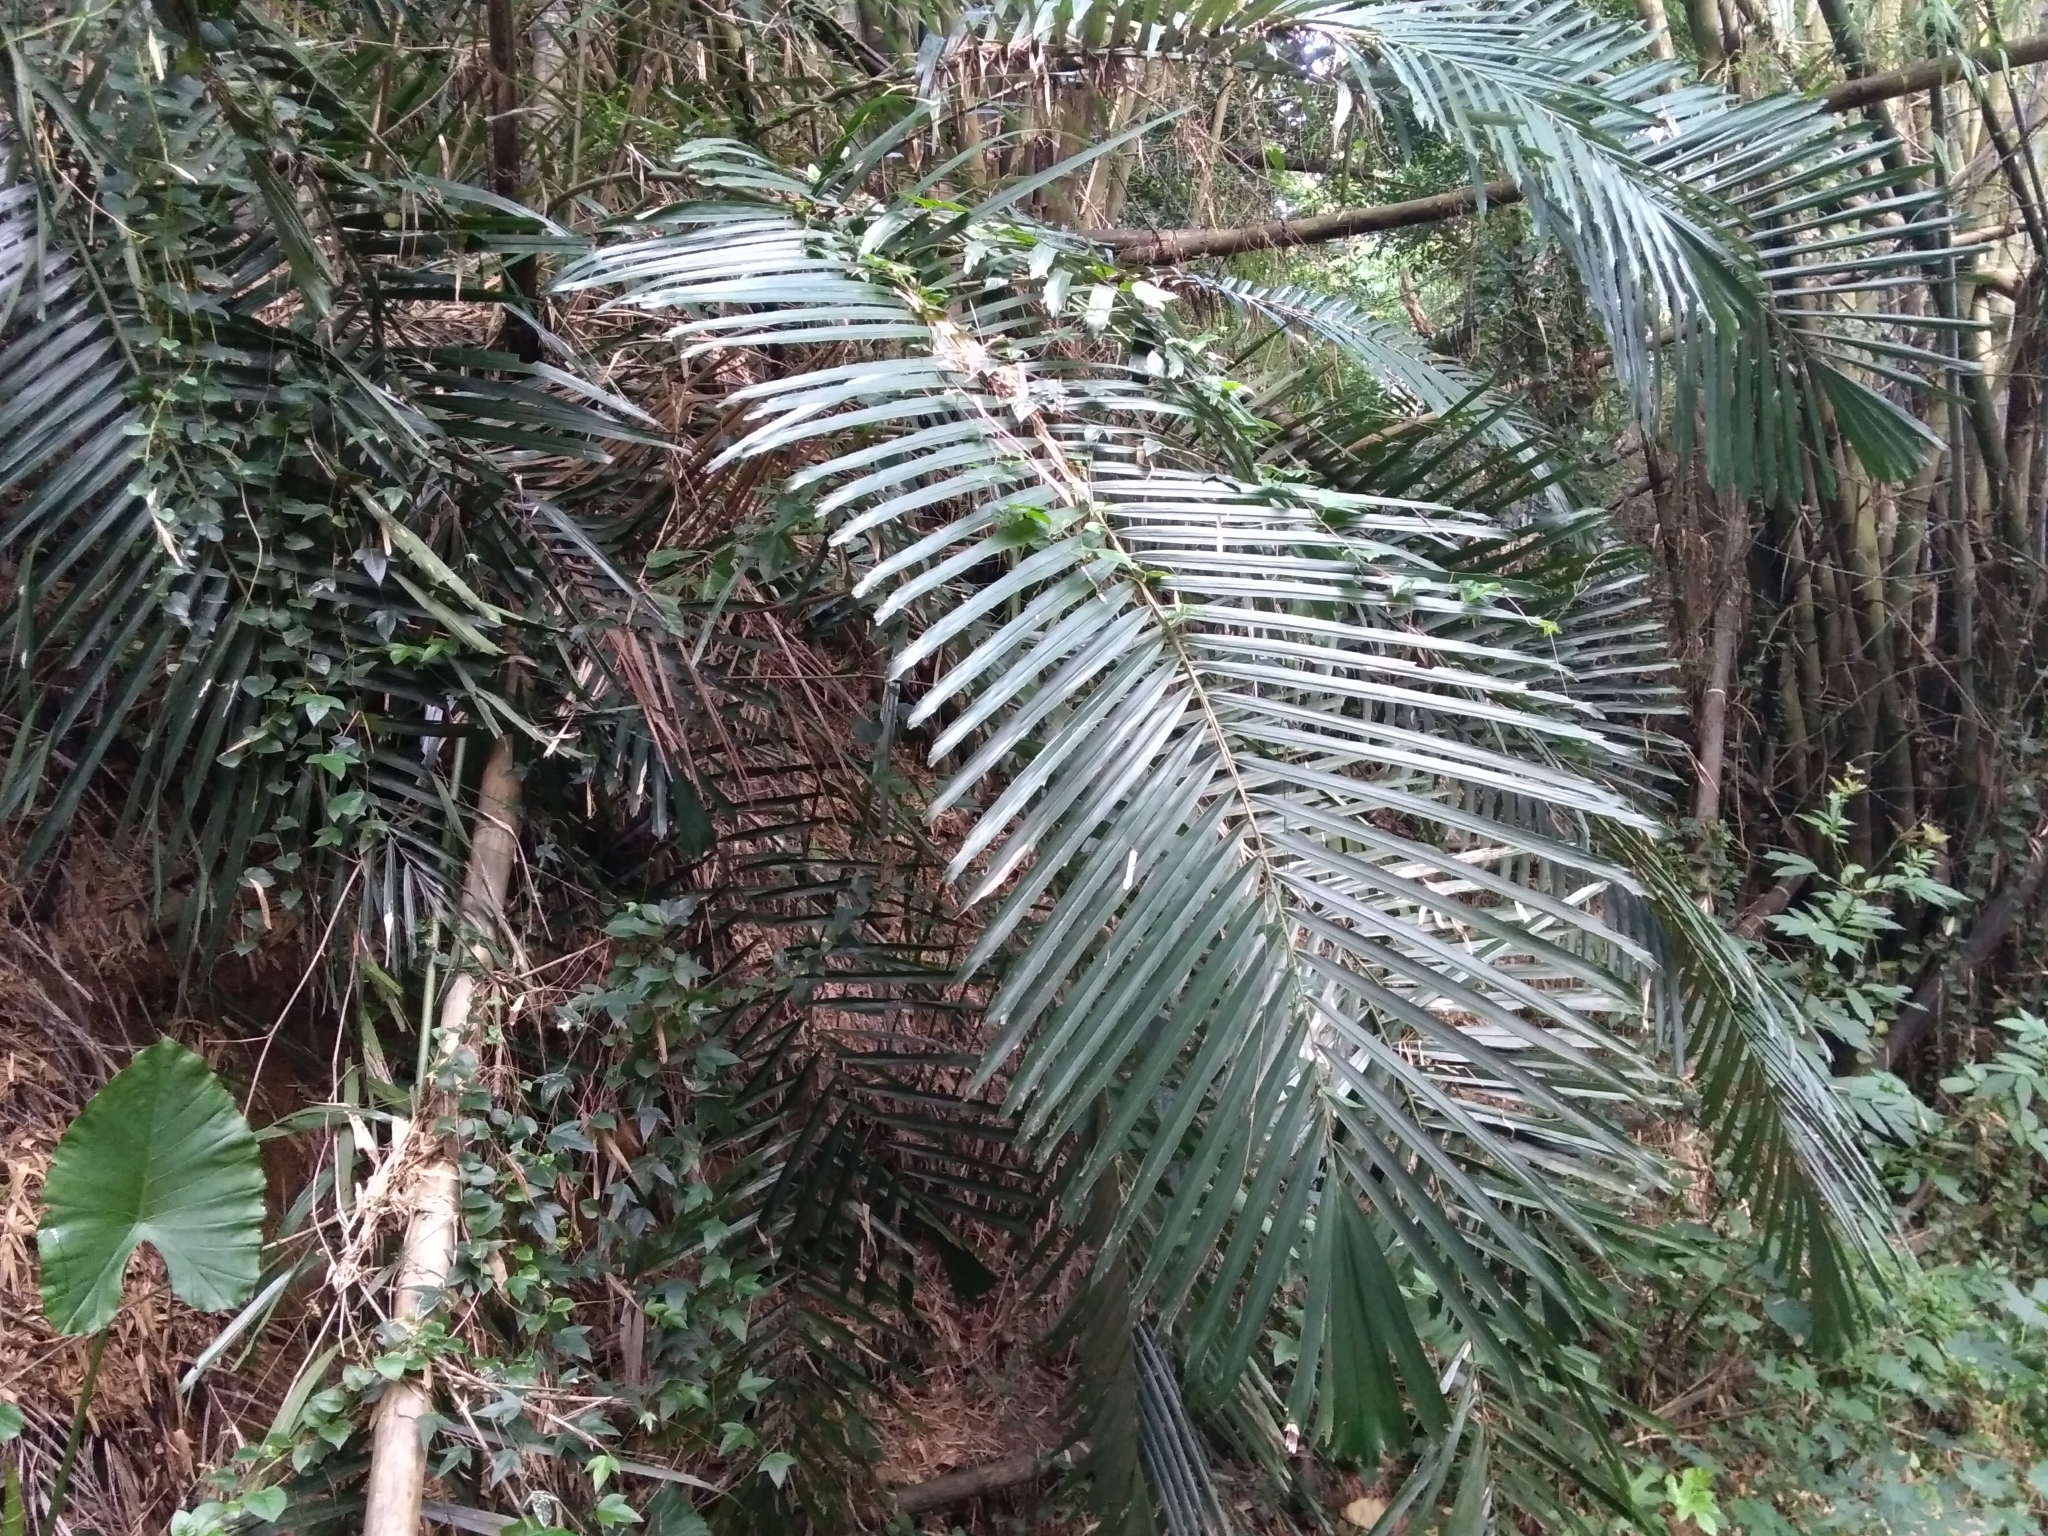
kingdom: Plantae
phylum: Tracheophyta
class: Liliopsida
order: Arecales
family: Arecaceae
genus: Arenga
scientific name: Arenga engleri
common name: Formosan sugar palm
